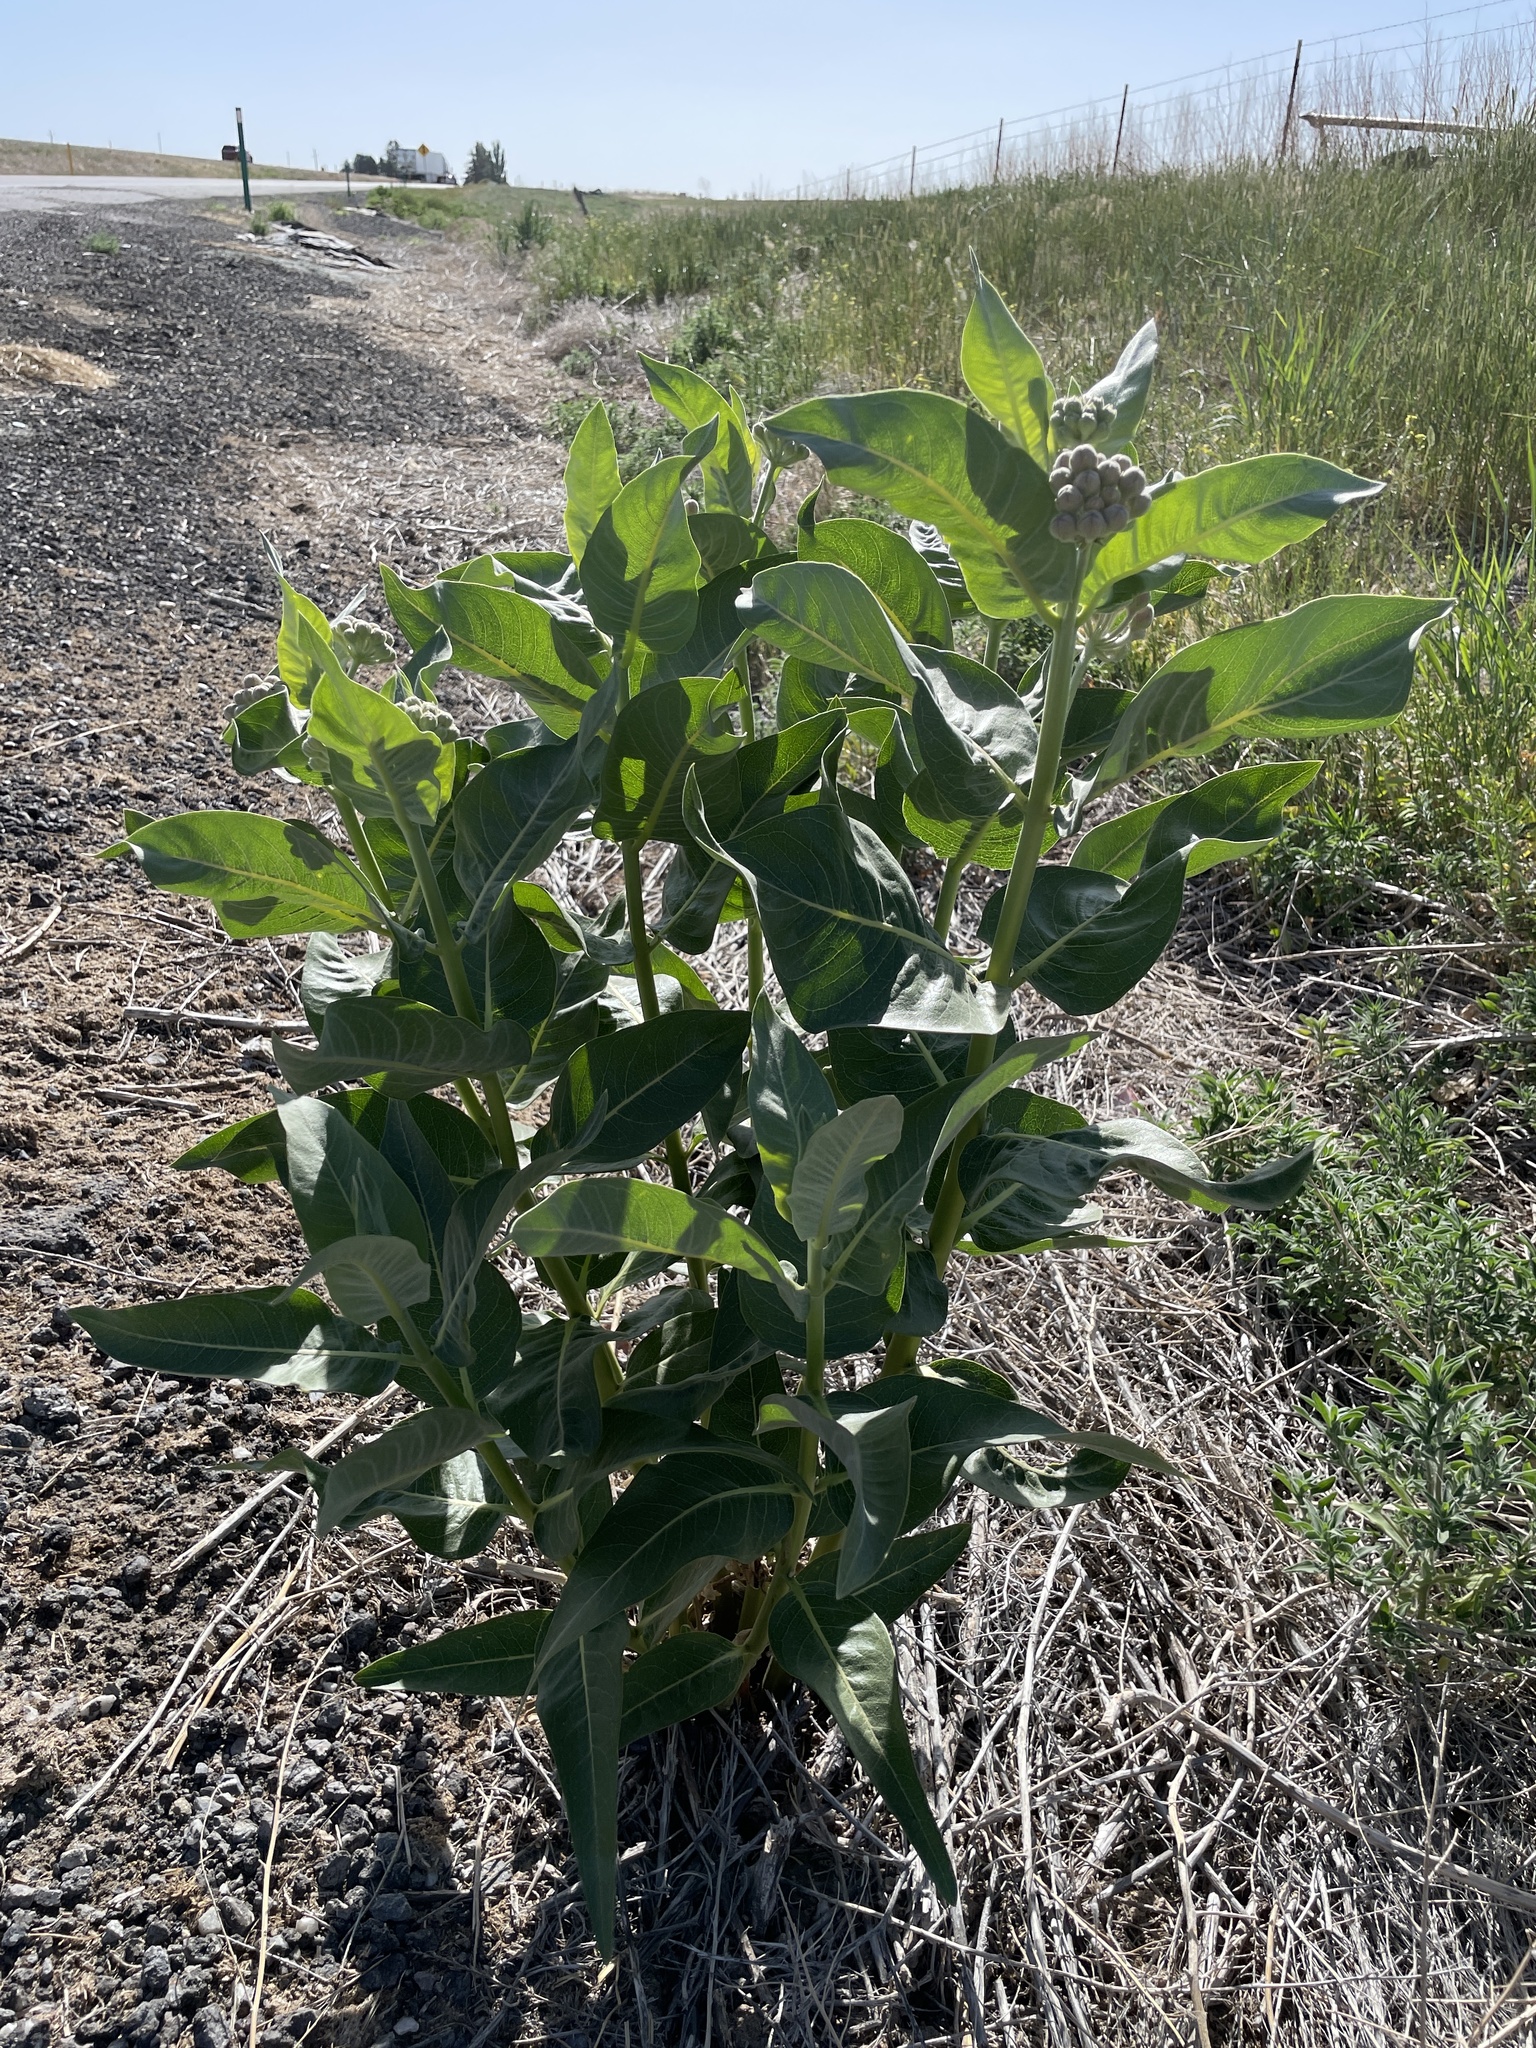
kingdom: Plantae
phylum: Tracheophyta
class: Magnoliopsida
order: Gentianales
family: Apocynaceae
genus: Asclepias
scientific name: Asclepias speciosa
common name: Showy milkweed
